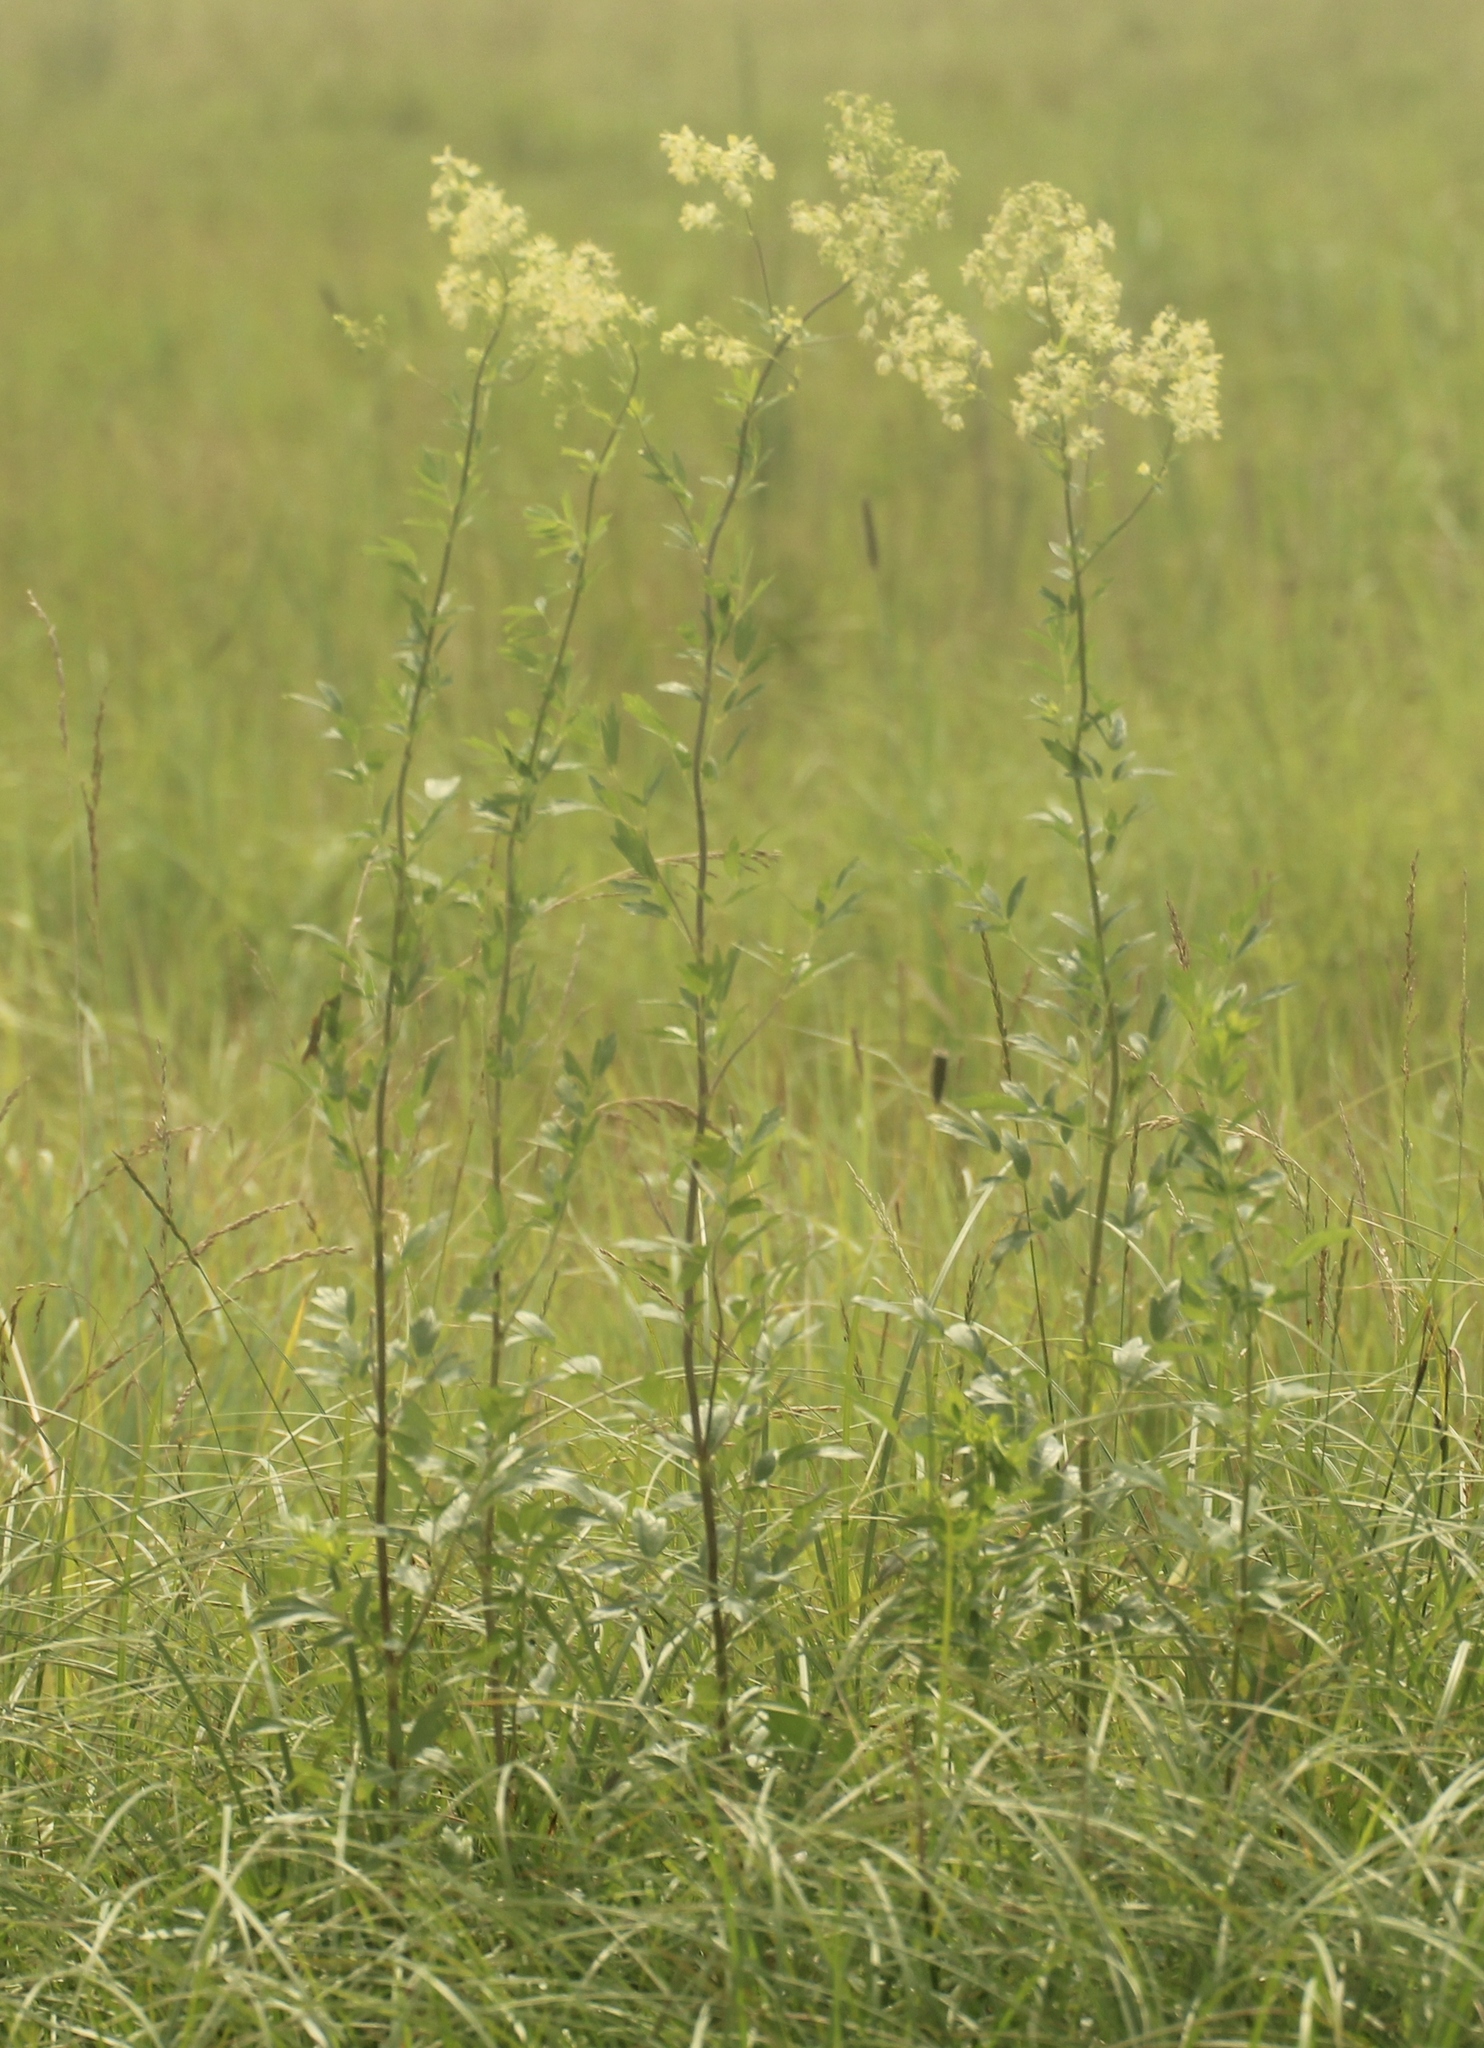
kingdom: Plantae
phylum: Tracheophyta
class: Magnoliopsida
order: Ranunculales
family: Ranunculaceae
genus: Thalictrum
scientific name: Thalictrum flavum
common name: Common meadow-rue
